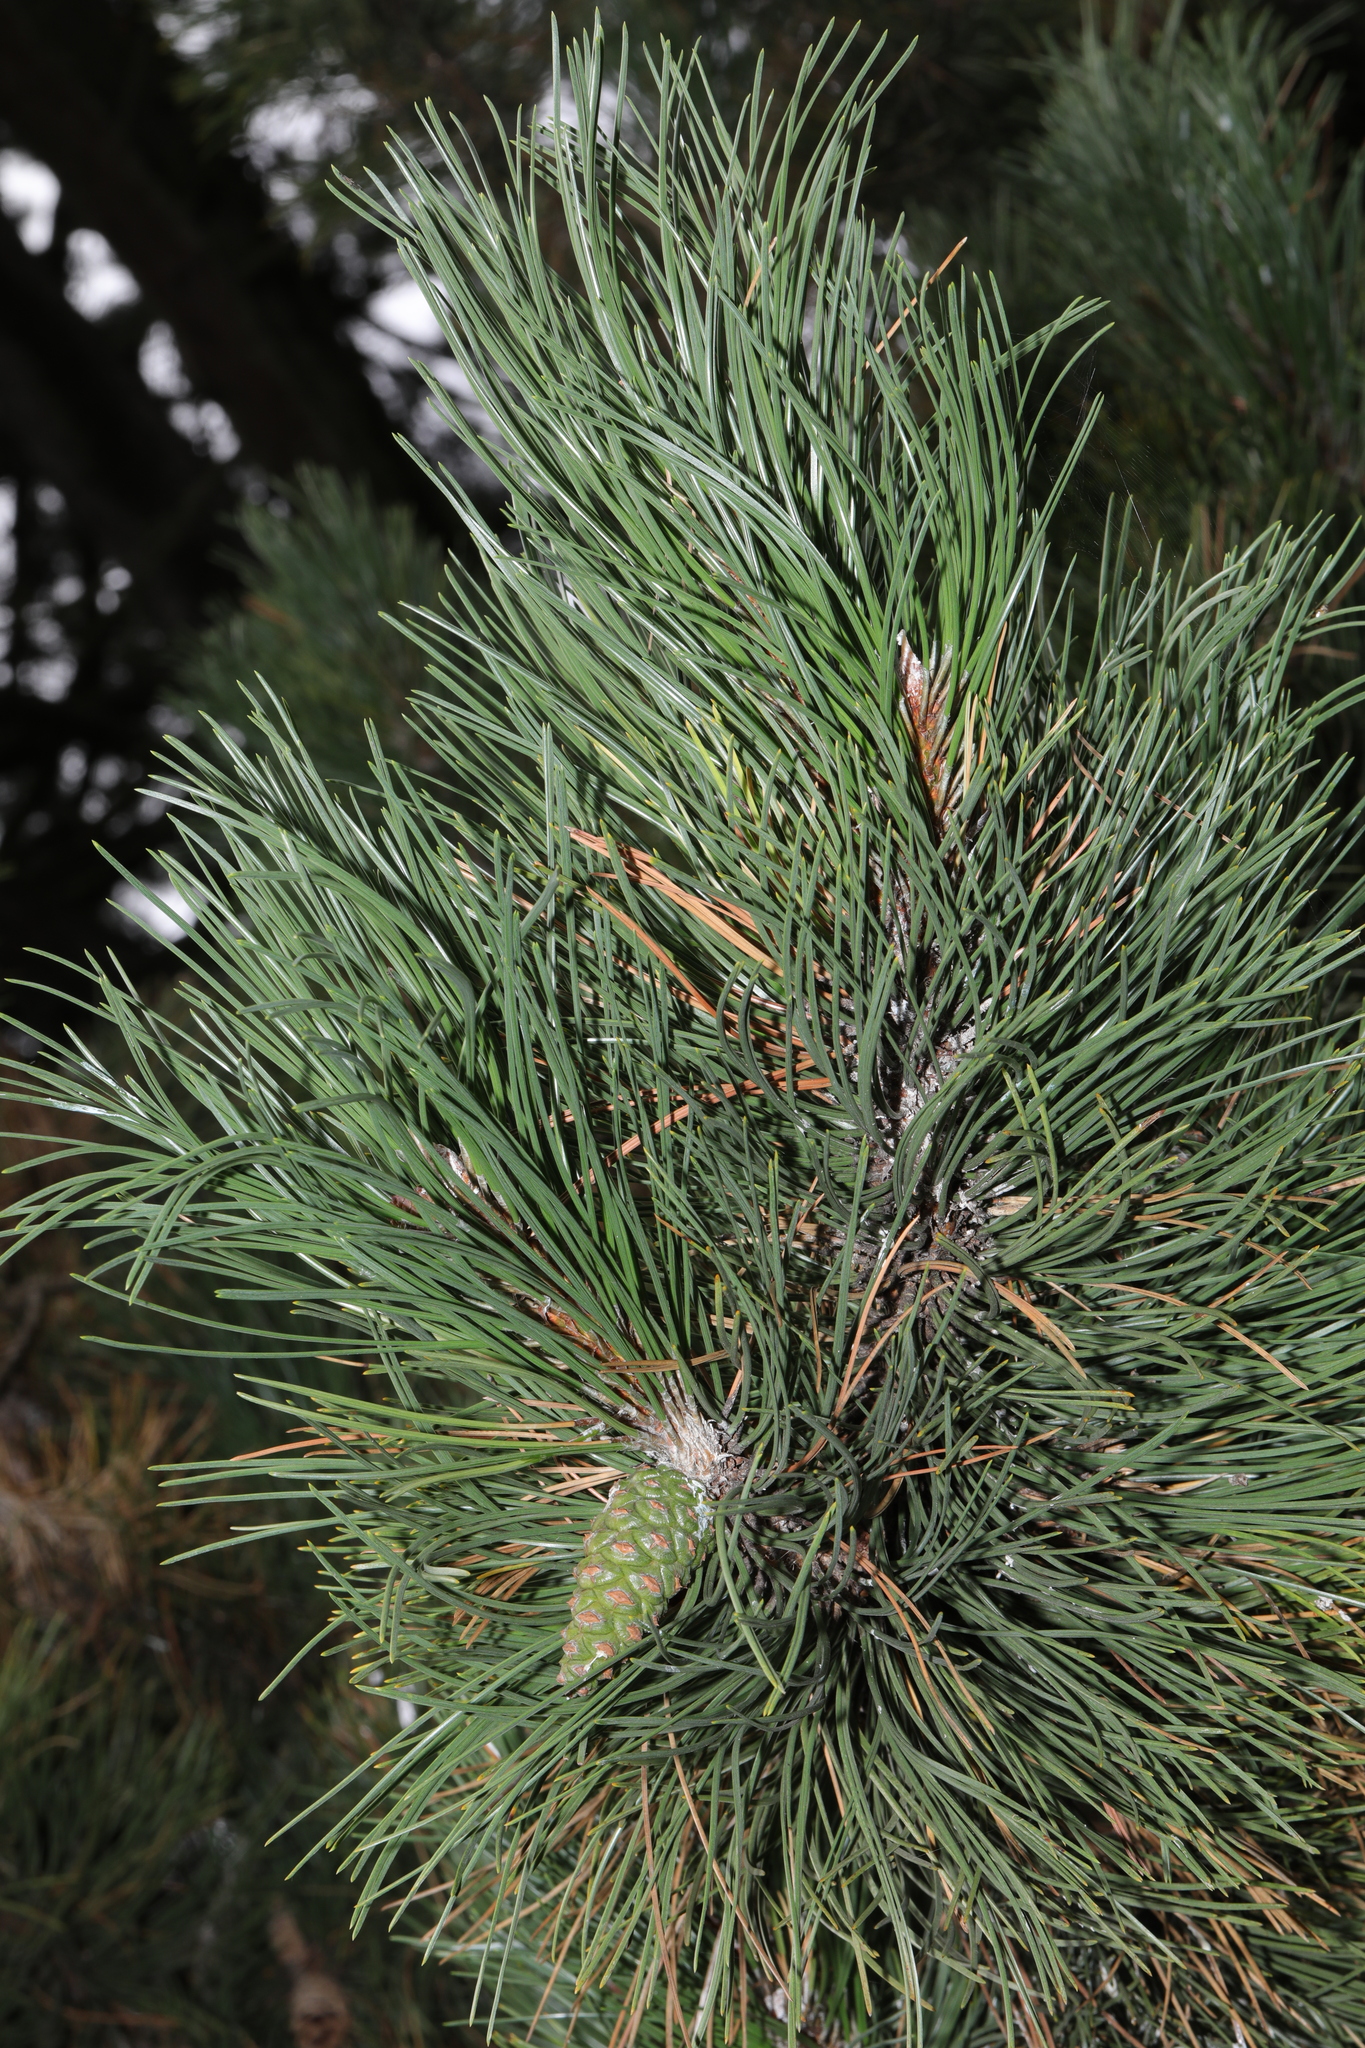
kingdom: Plantae
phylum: Tracheophyta
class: Pinopsida
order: Pinales
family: Pinaceae
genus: Pinus
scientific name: Pinus nigra
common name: Austrian pine
